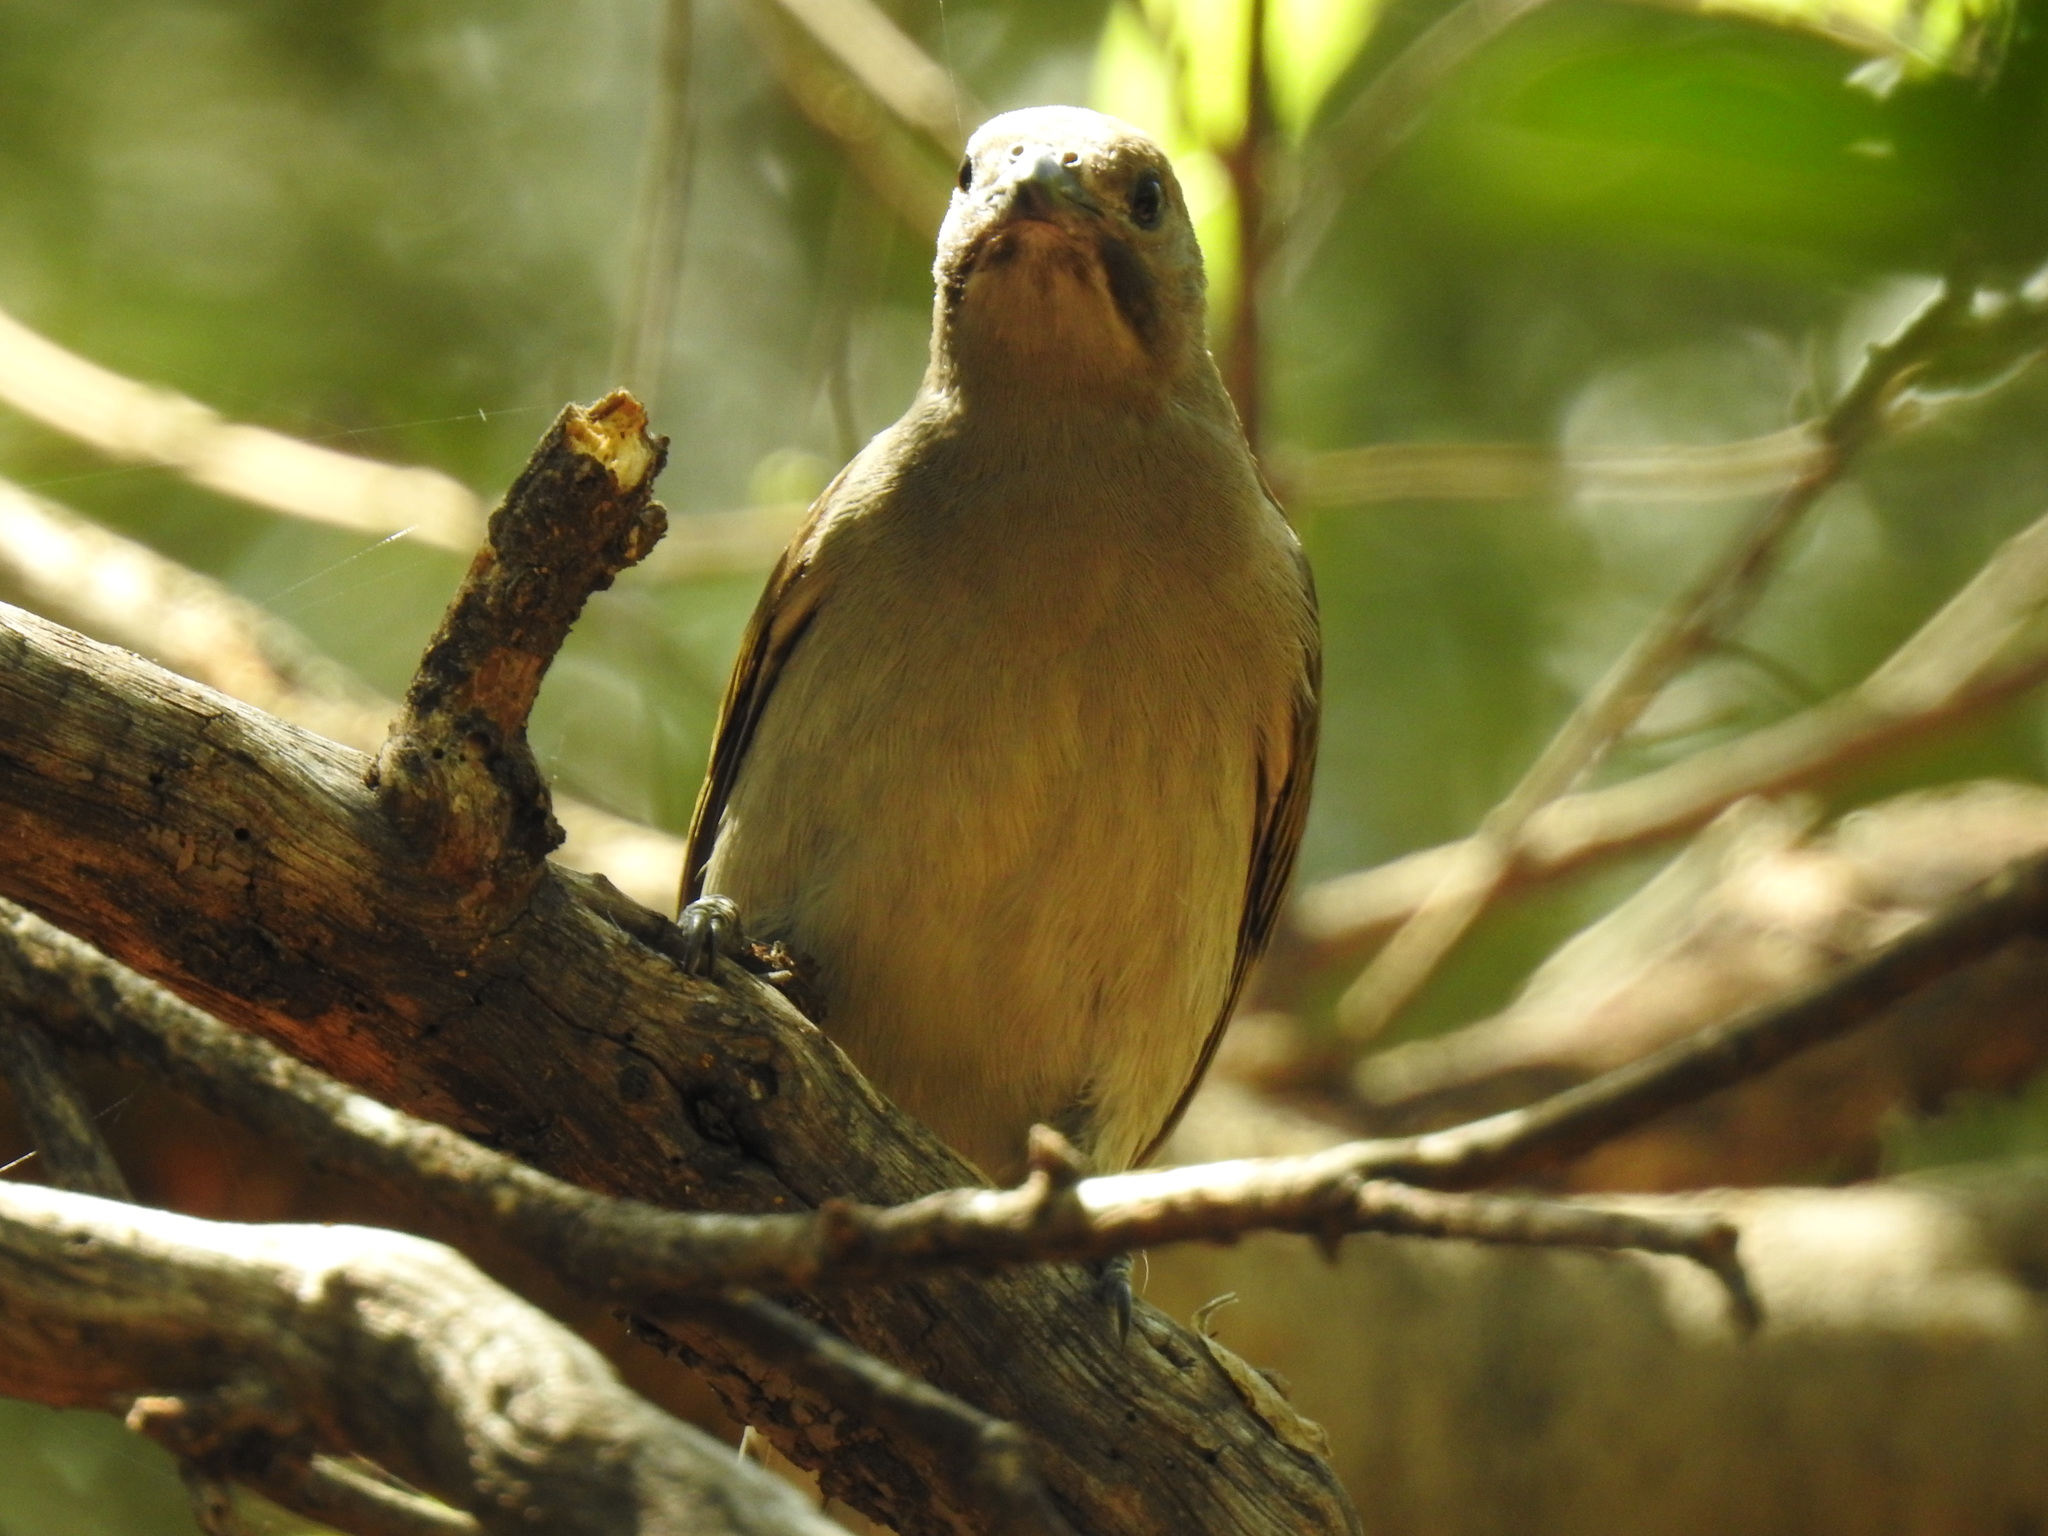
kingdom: Animalia
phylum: Chordata
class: Aves
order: Piciformes
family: Indicatoridae
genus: Indicator
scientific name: Indicator minor
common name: Lesser honeyguide
